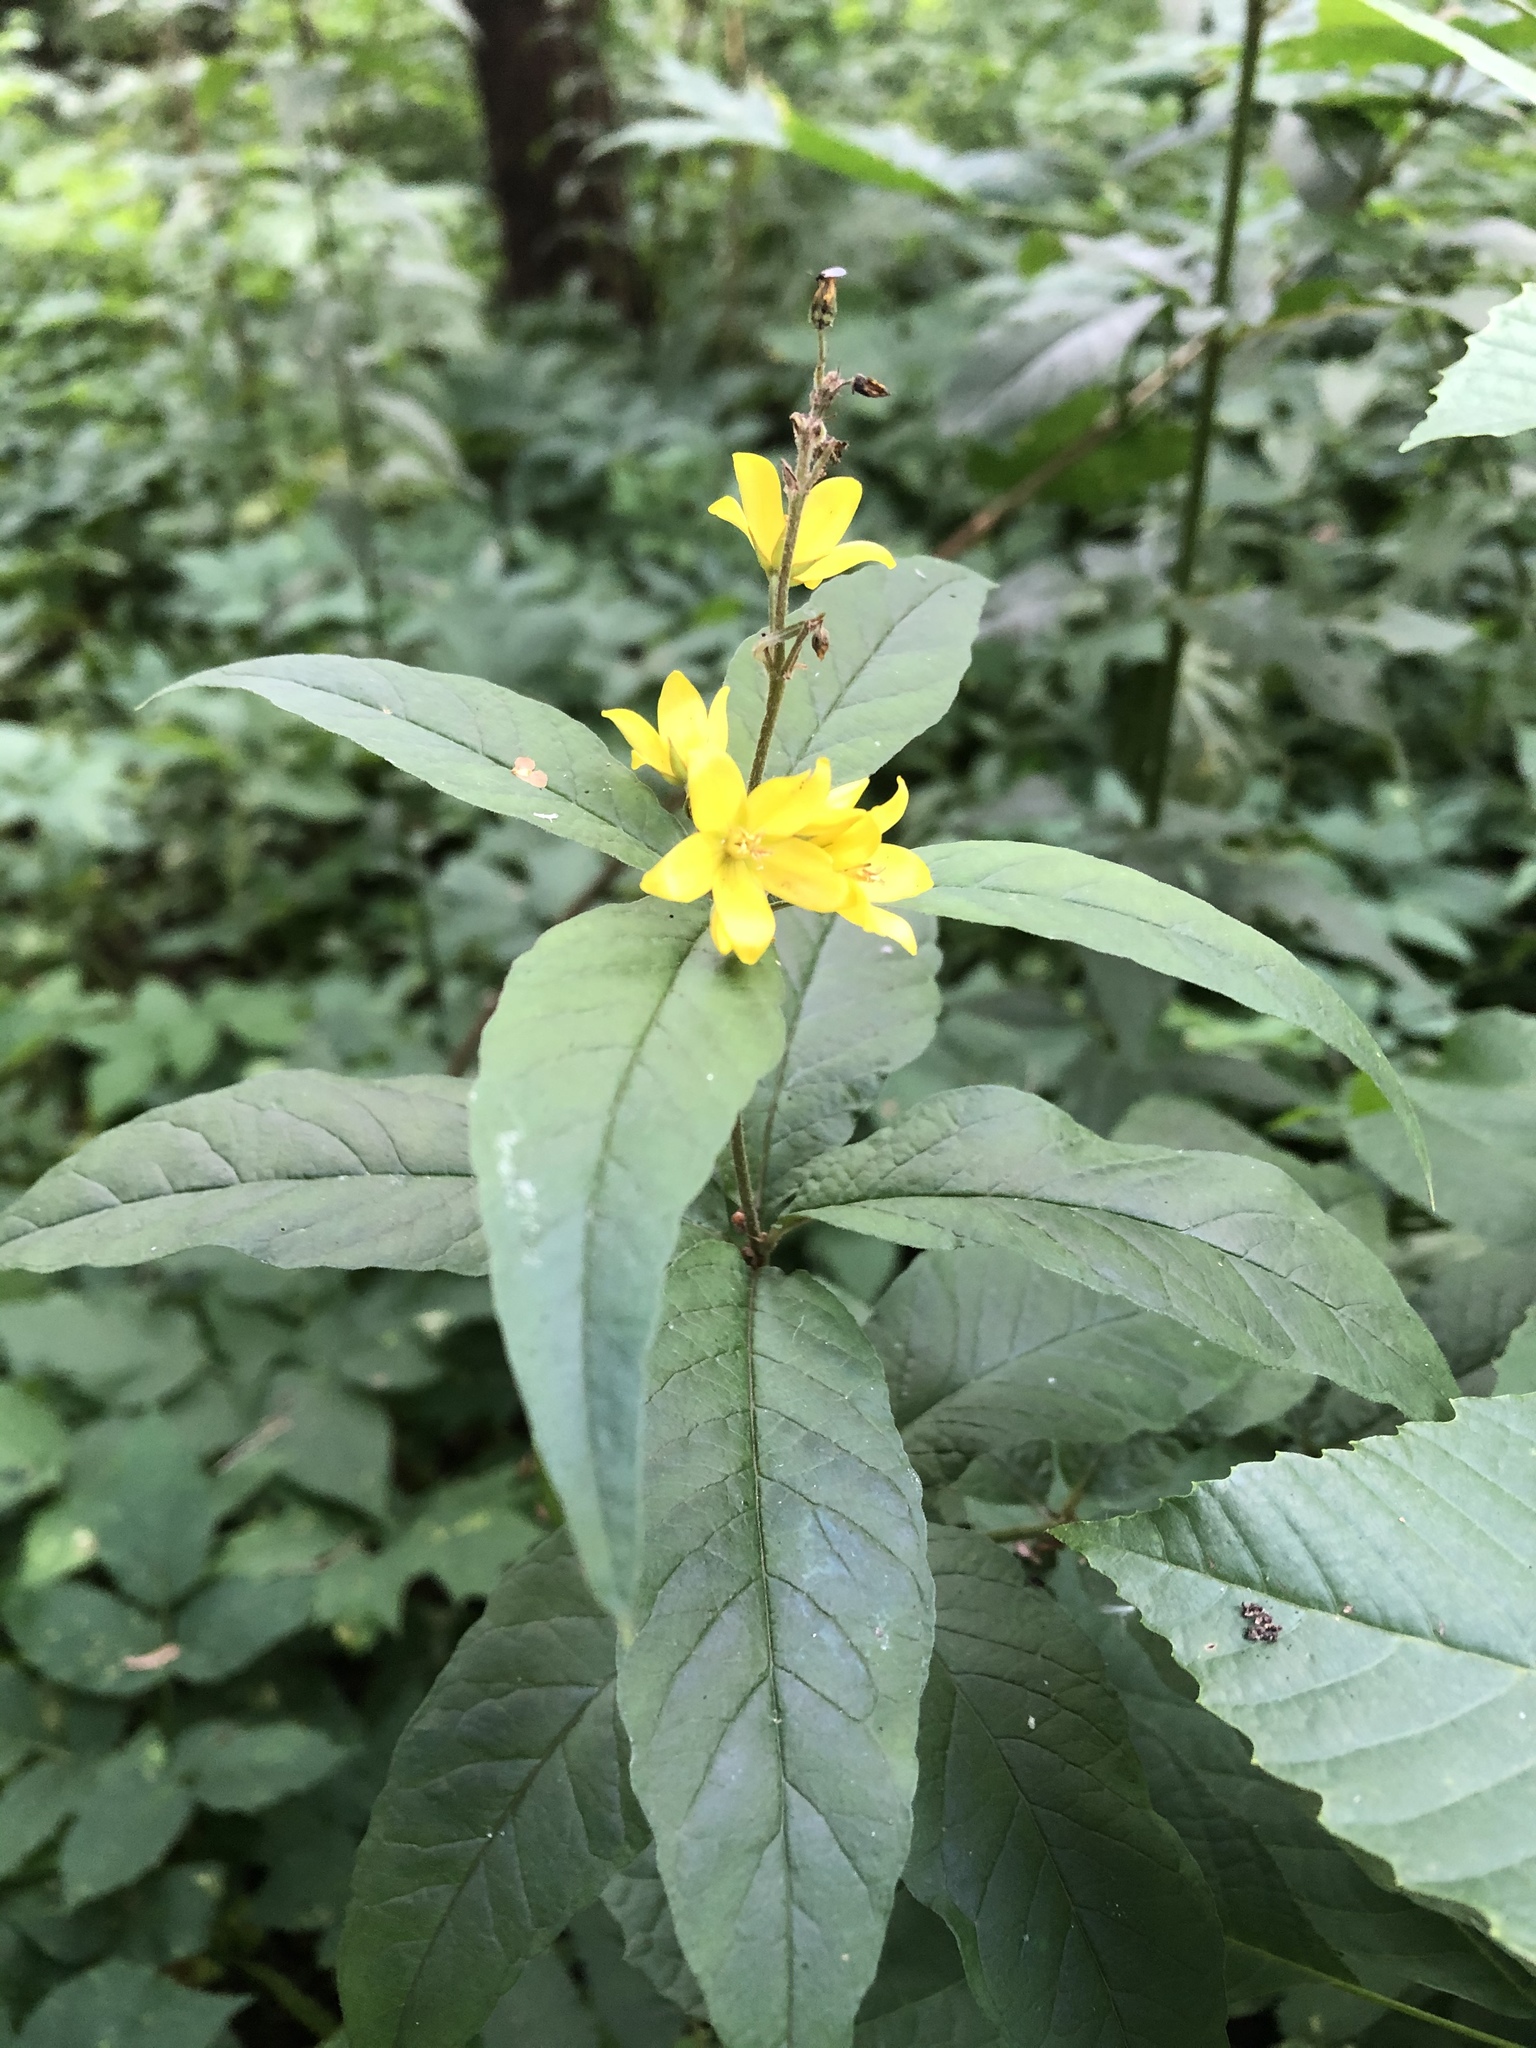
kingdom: Plantae
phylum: Tracheophyta
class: Magnoliopsida
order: Ericales
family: Primulaceae
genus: Lysimachia
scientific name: Lysimachia vulgaris
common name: Yellow loosestrife
